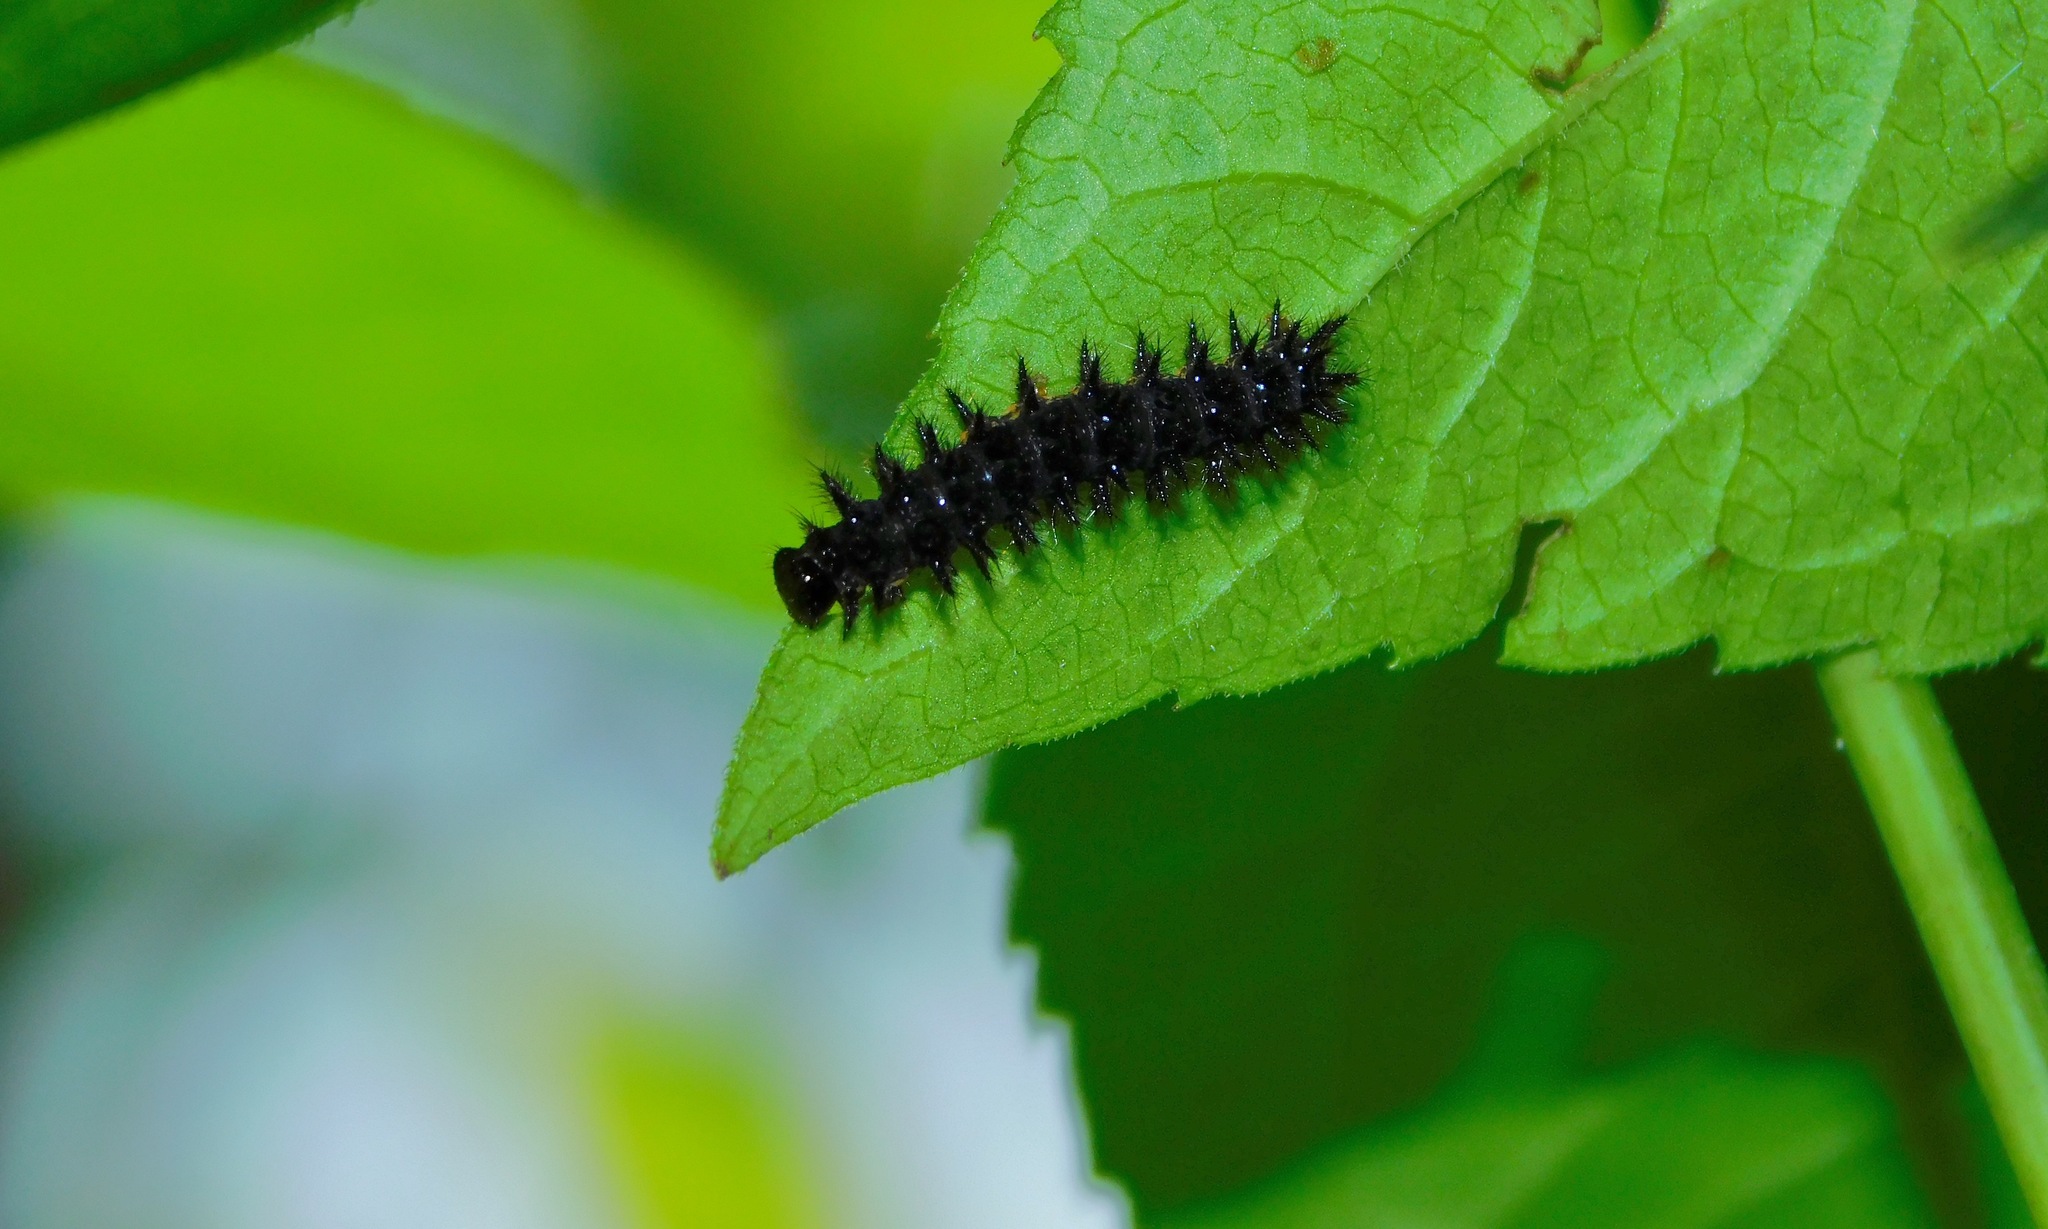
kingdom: Animalia
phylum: Arthropoda
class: Insecta
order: Lepidoptera
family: Nymphalidae
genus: Chlosyne
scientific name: Chlosyne nycteis
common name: Silvery checkerspot
